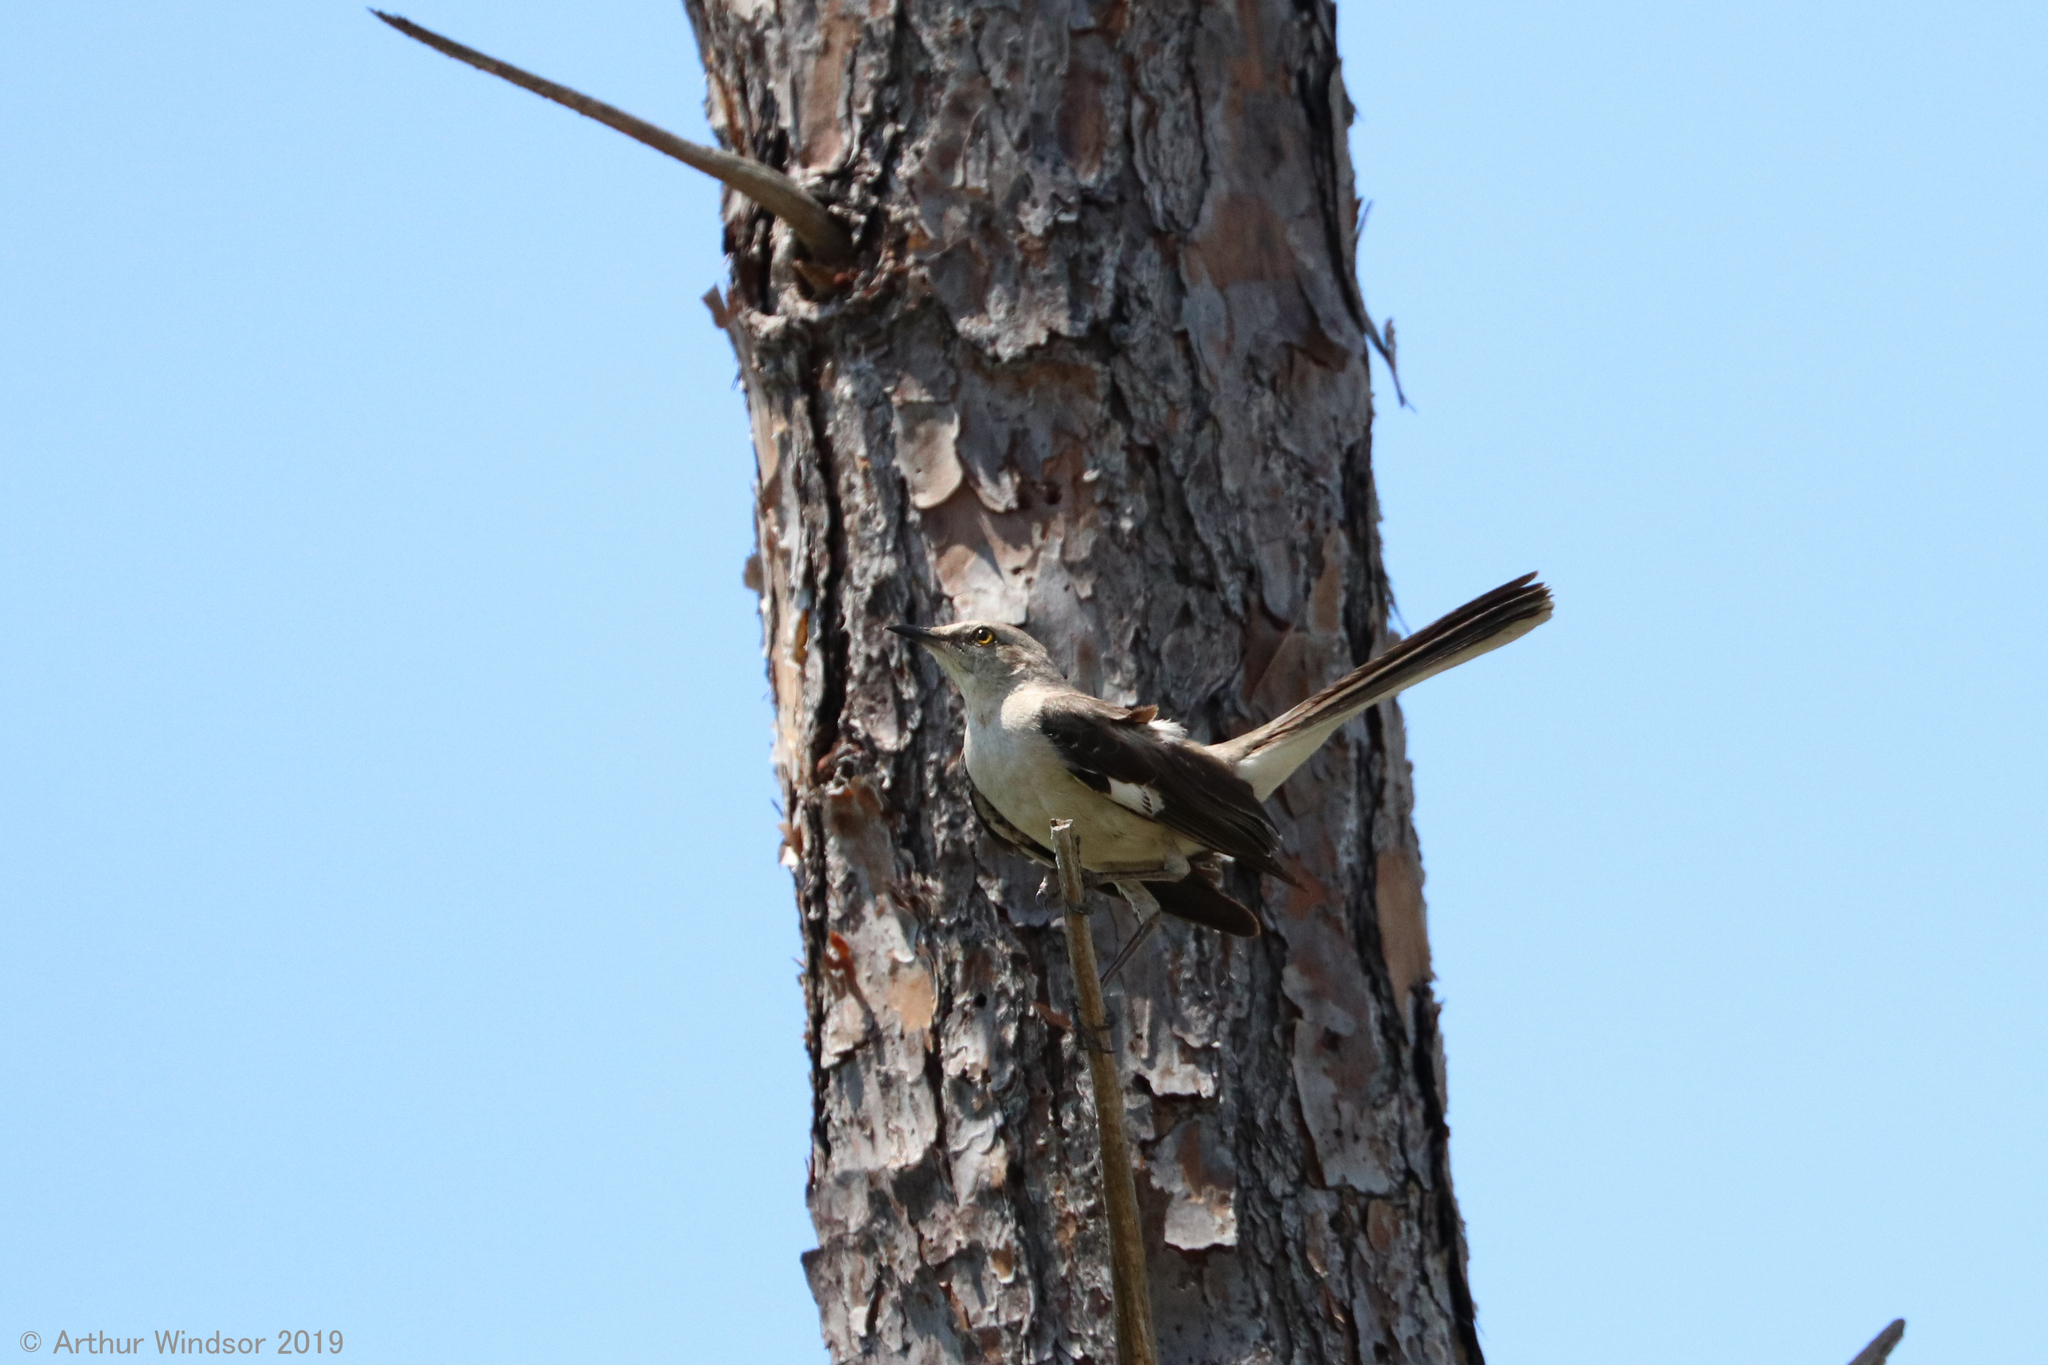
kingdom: Animalia
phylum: Chordata
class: Aves
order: Passeriformes
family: Mimidae
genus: Mimus
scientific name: Mimus polyglottos
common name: Northern mockingbird
